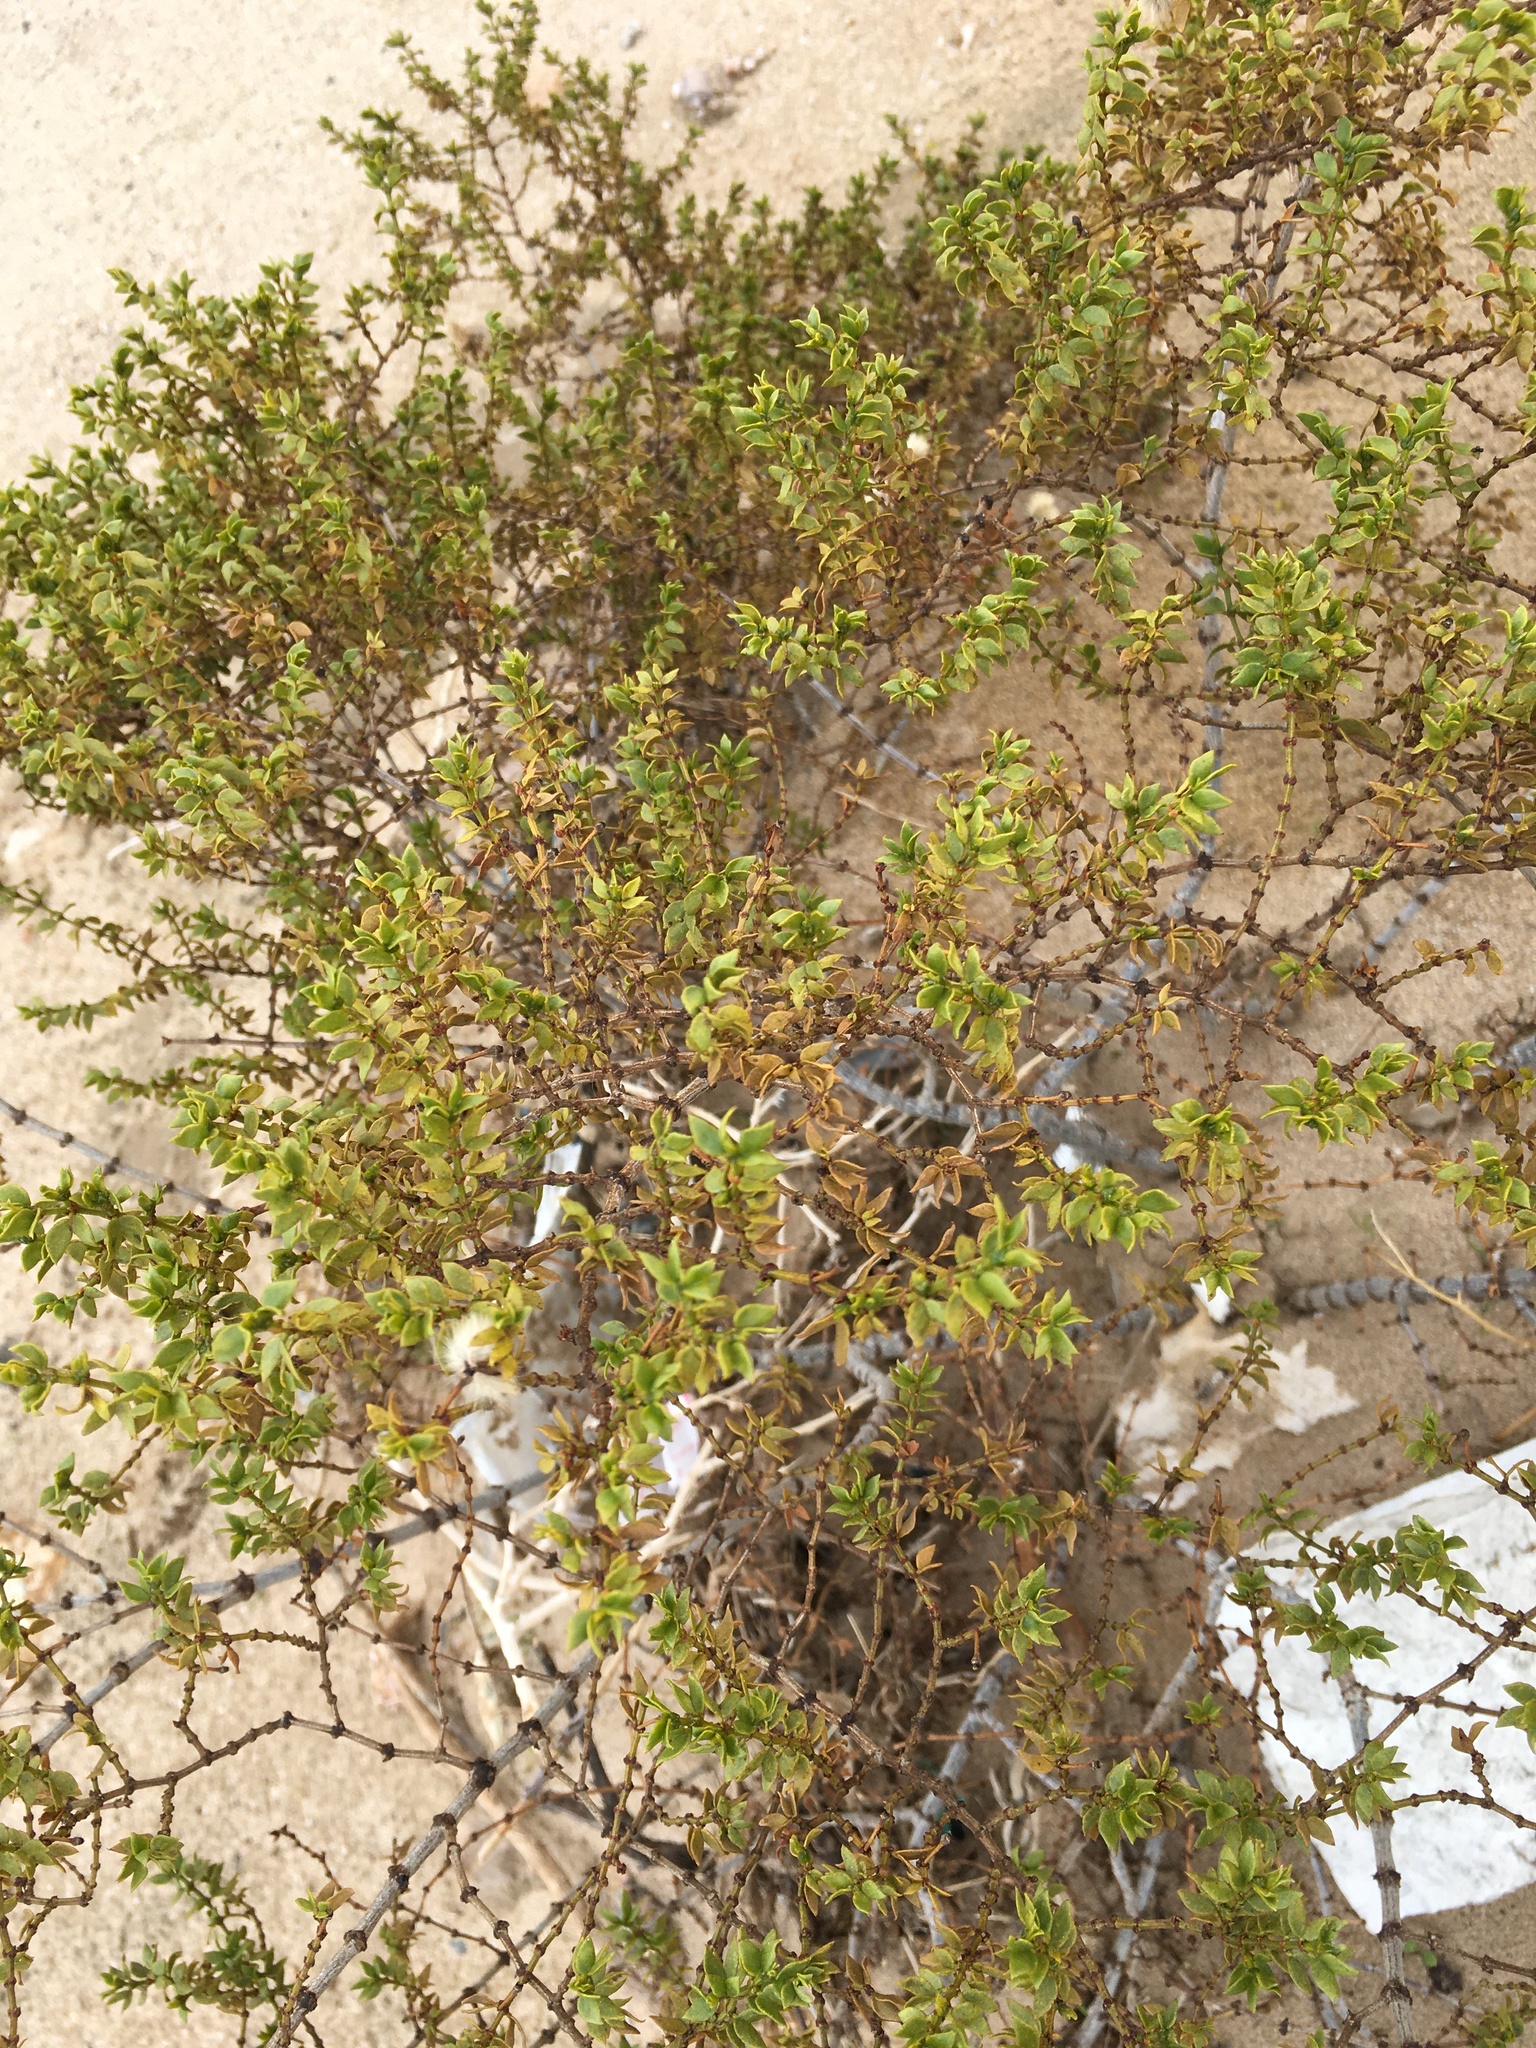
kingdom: Plantae
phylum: Tracheophyta
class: Magnoliopsida
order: Zygophyllales
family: Zygophyllaceae
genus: Larrea
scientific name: Larrea tridentata
